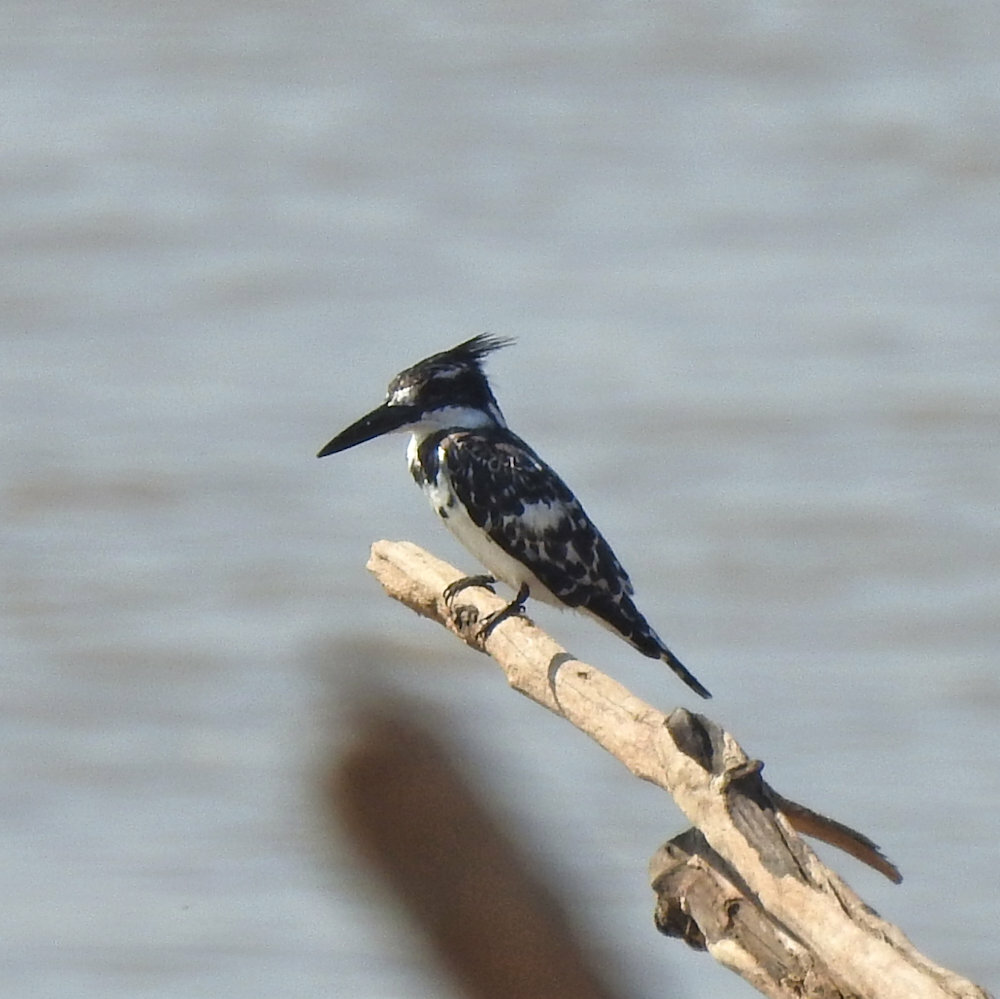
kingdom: Animalia
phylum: Chordata
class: Aves
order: Coraciiformes
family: Alcedinidae
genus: Ceryle
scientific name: Ceryle rudis
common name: Pied kingfisher
